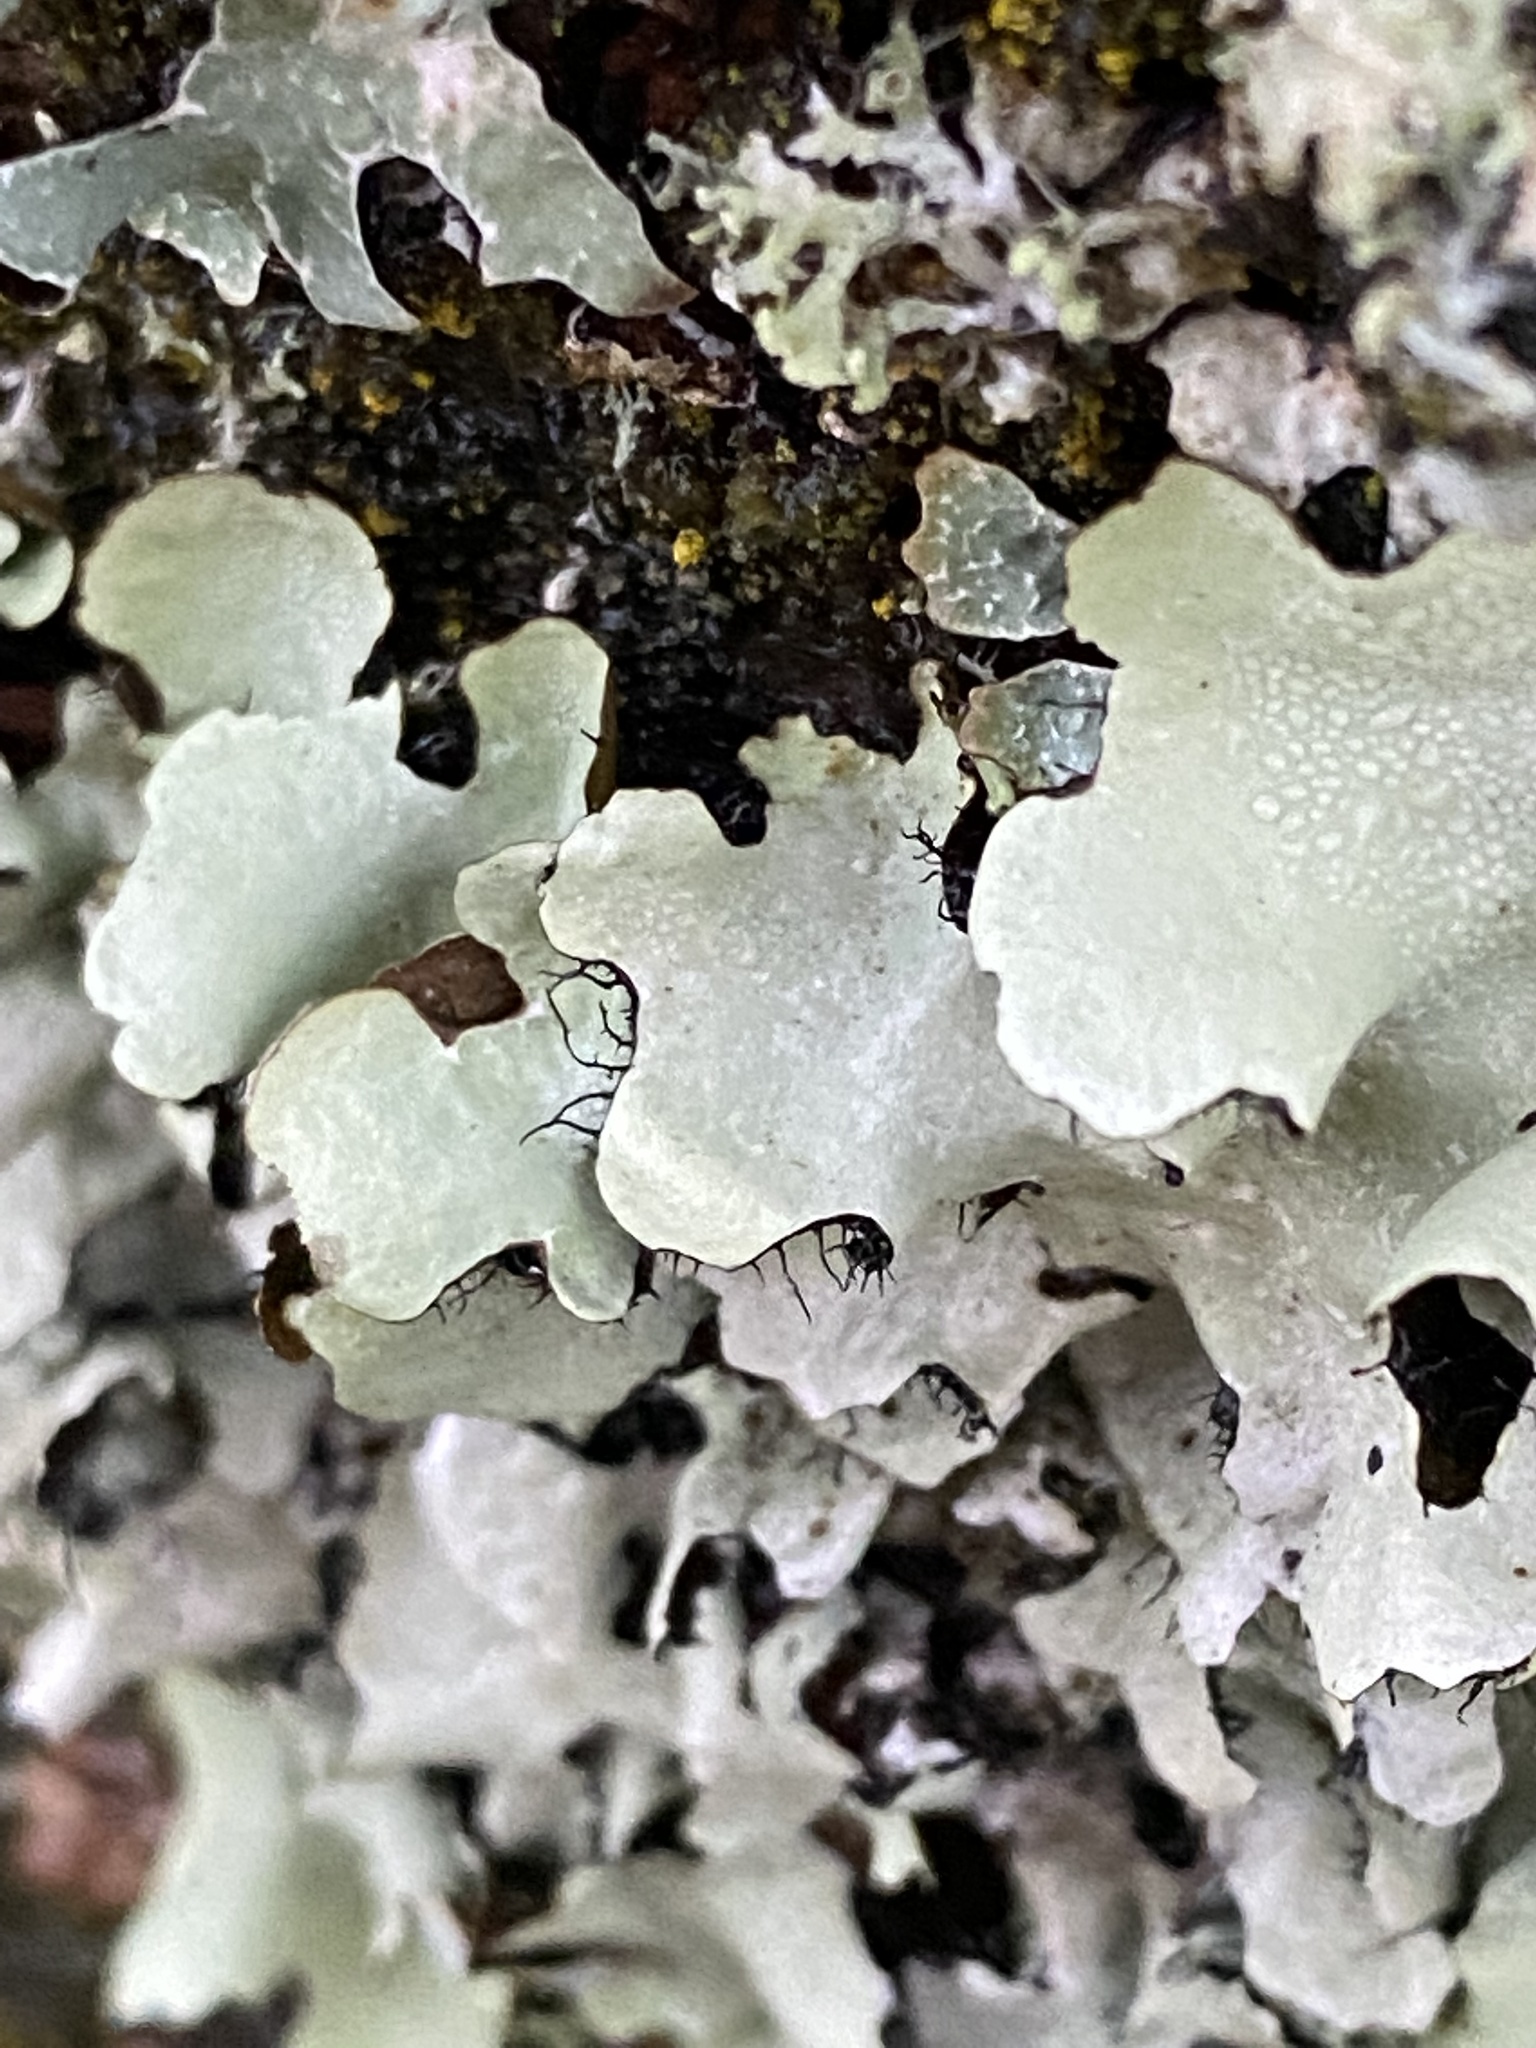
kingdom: Fungi
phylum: Ascomycota
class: Lecanoromycetes
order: Lecanorales
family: Parmeliaceae
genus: Parmotrema
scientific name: Parmotrema perlatum
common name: Black stone flower
